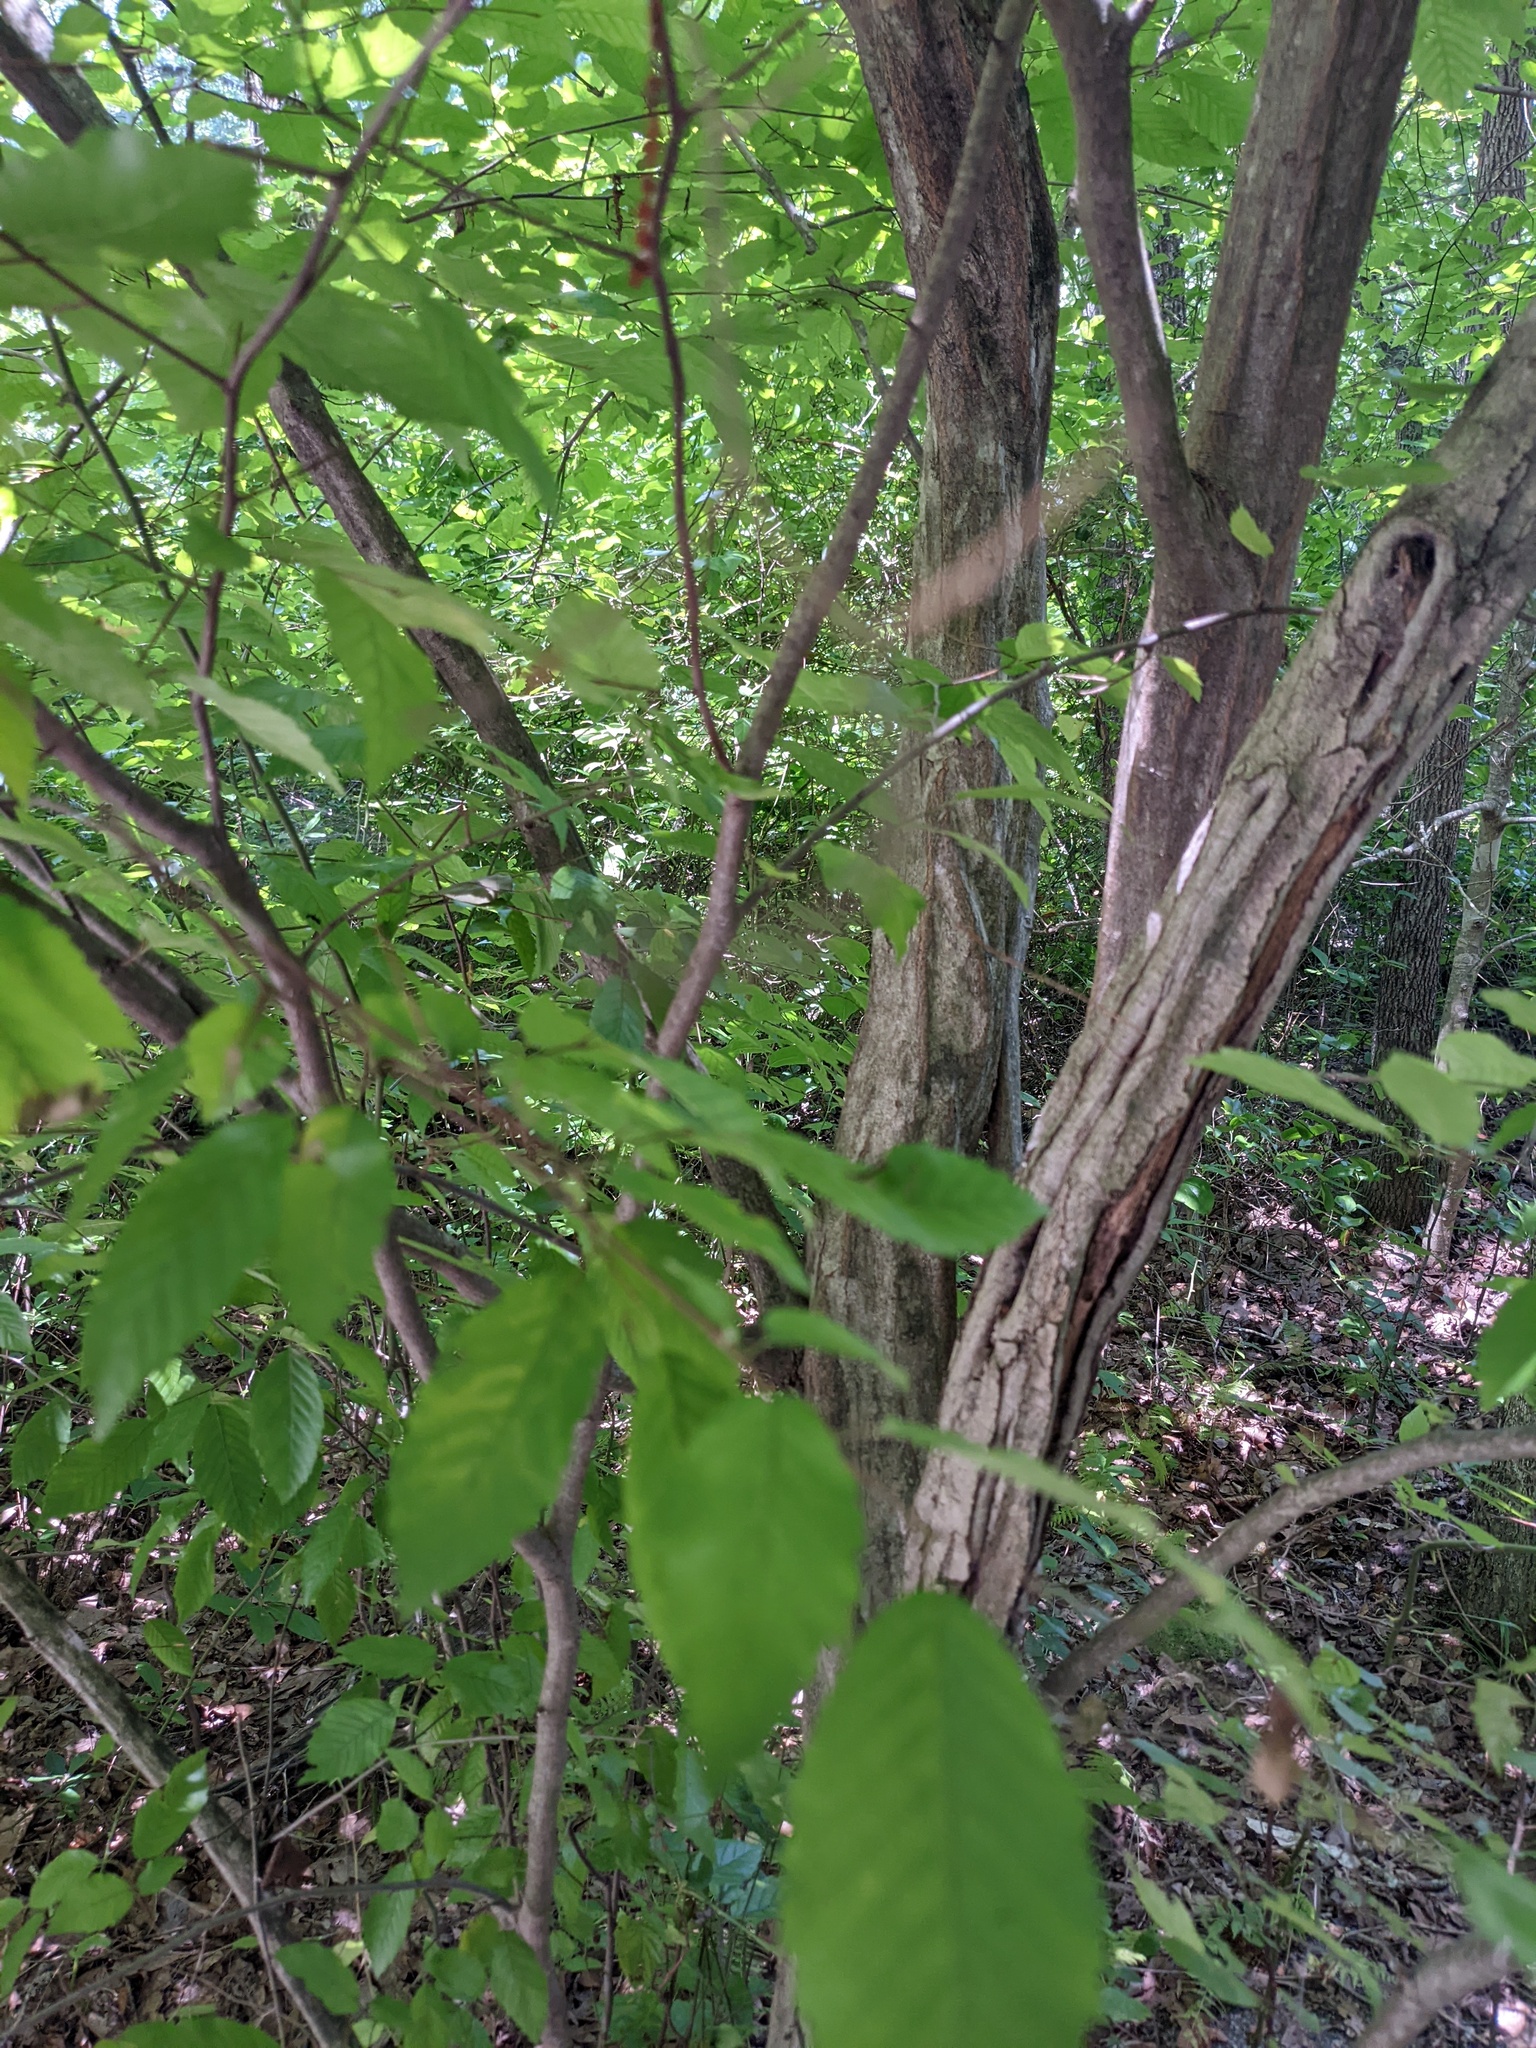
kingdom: Plantae
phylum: Tracheophyta
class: Magnoliopsida
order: Fagales
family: Betulaceae
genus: Carpinus
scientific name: Carpinus caroliniana
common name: American hornbeam
